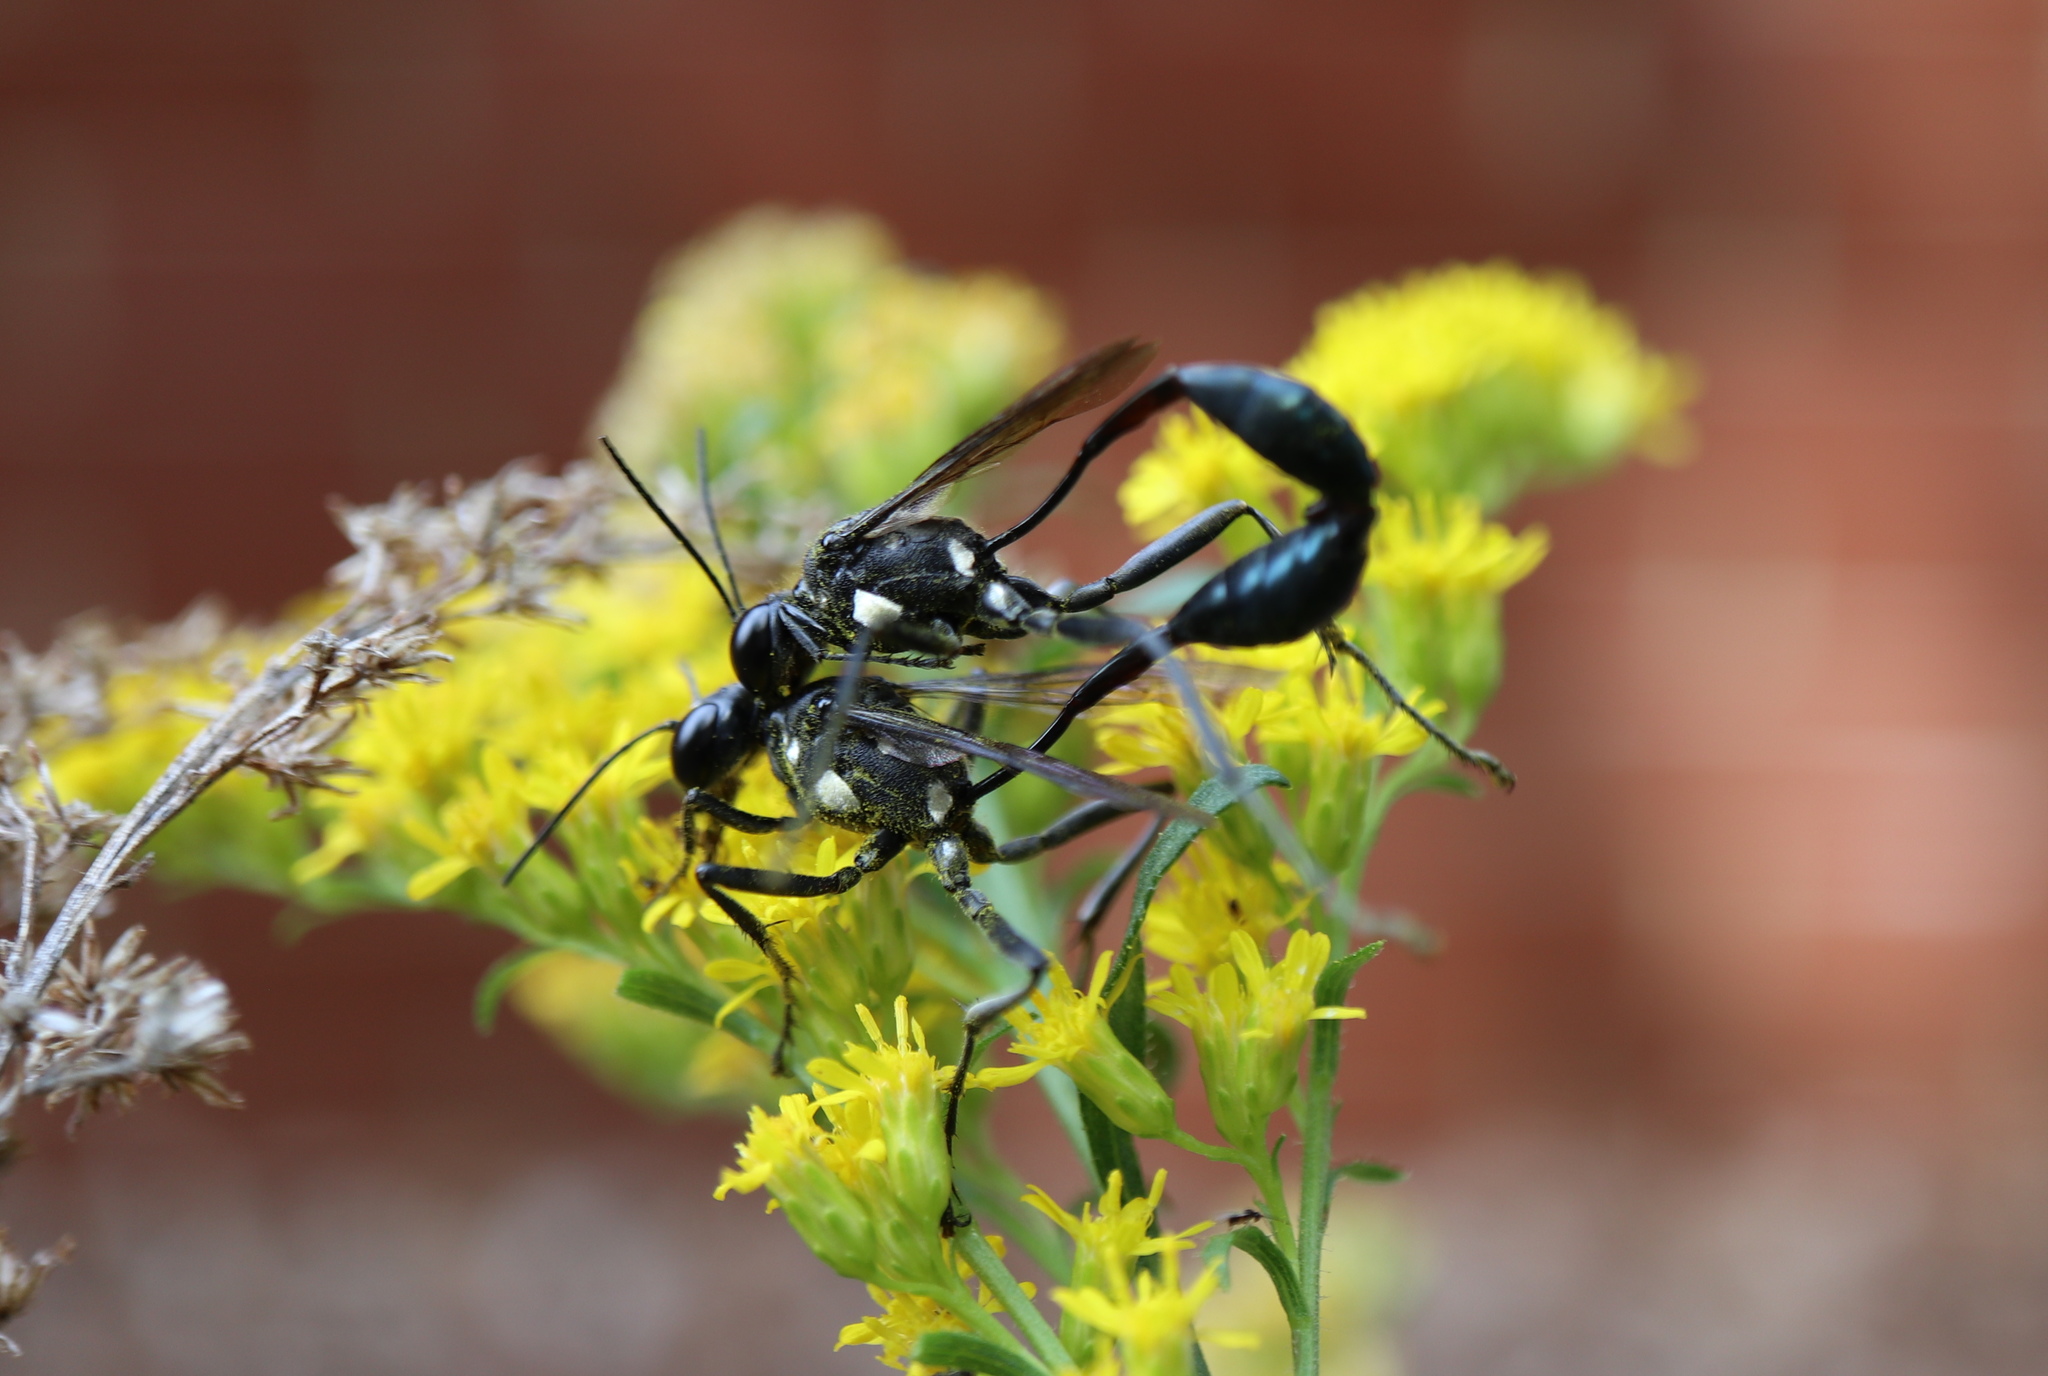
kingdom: Animalia
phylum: Arthropoda
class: Insecta
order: Hymenoptera
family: Sphecidae
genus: Eremnophila
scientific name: Eremnophila aureonotata
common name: Gold-marked thread-waisted wasp
